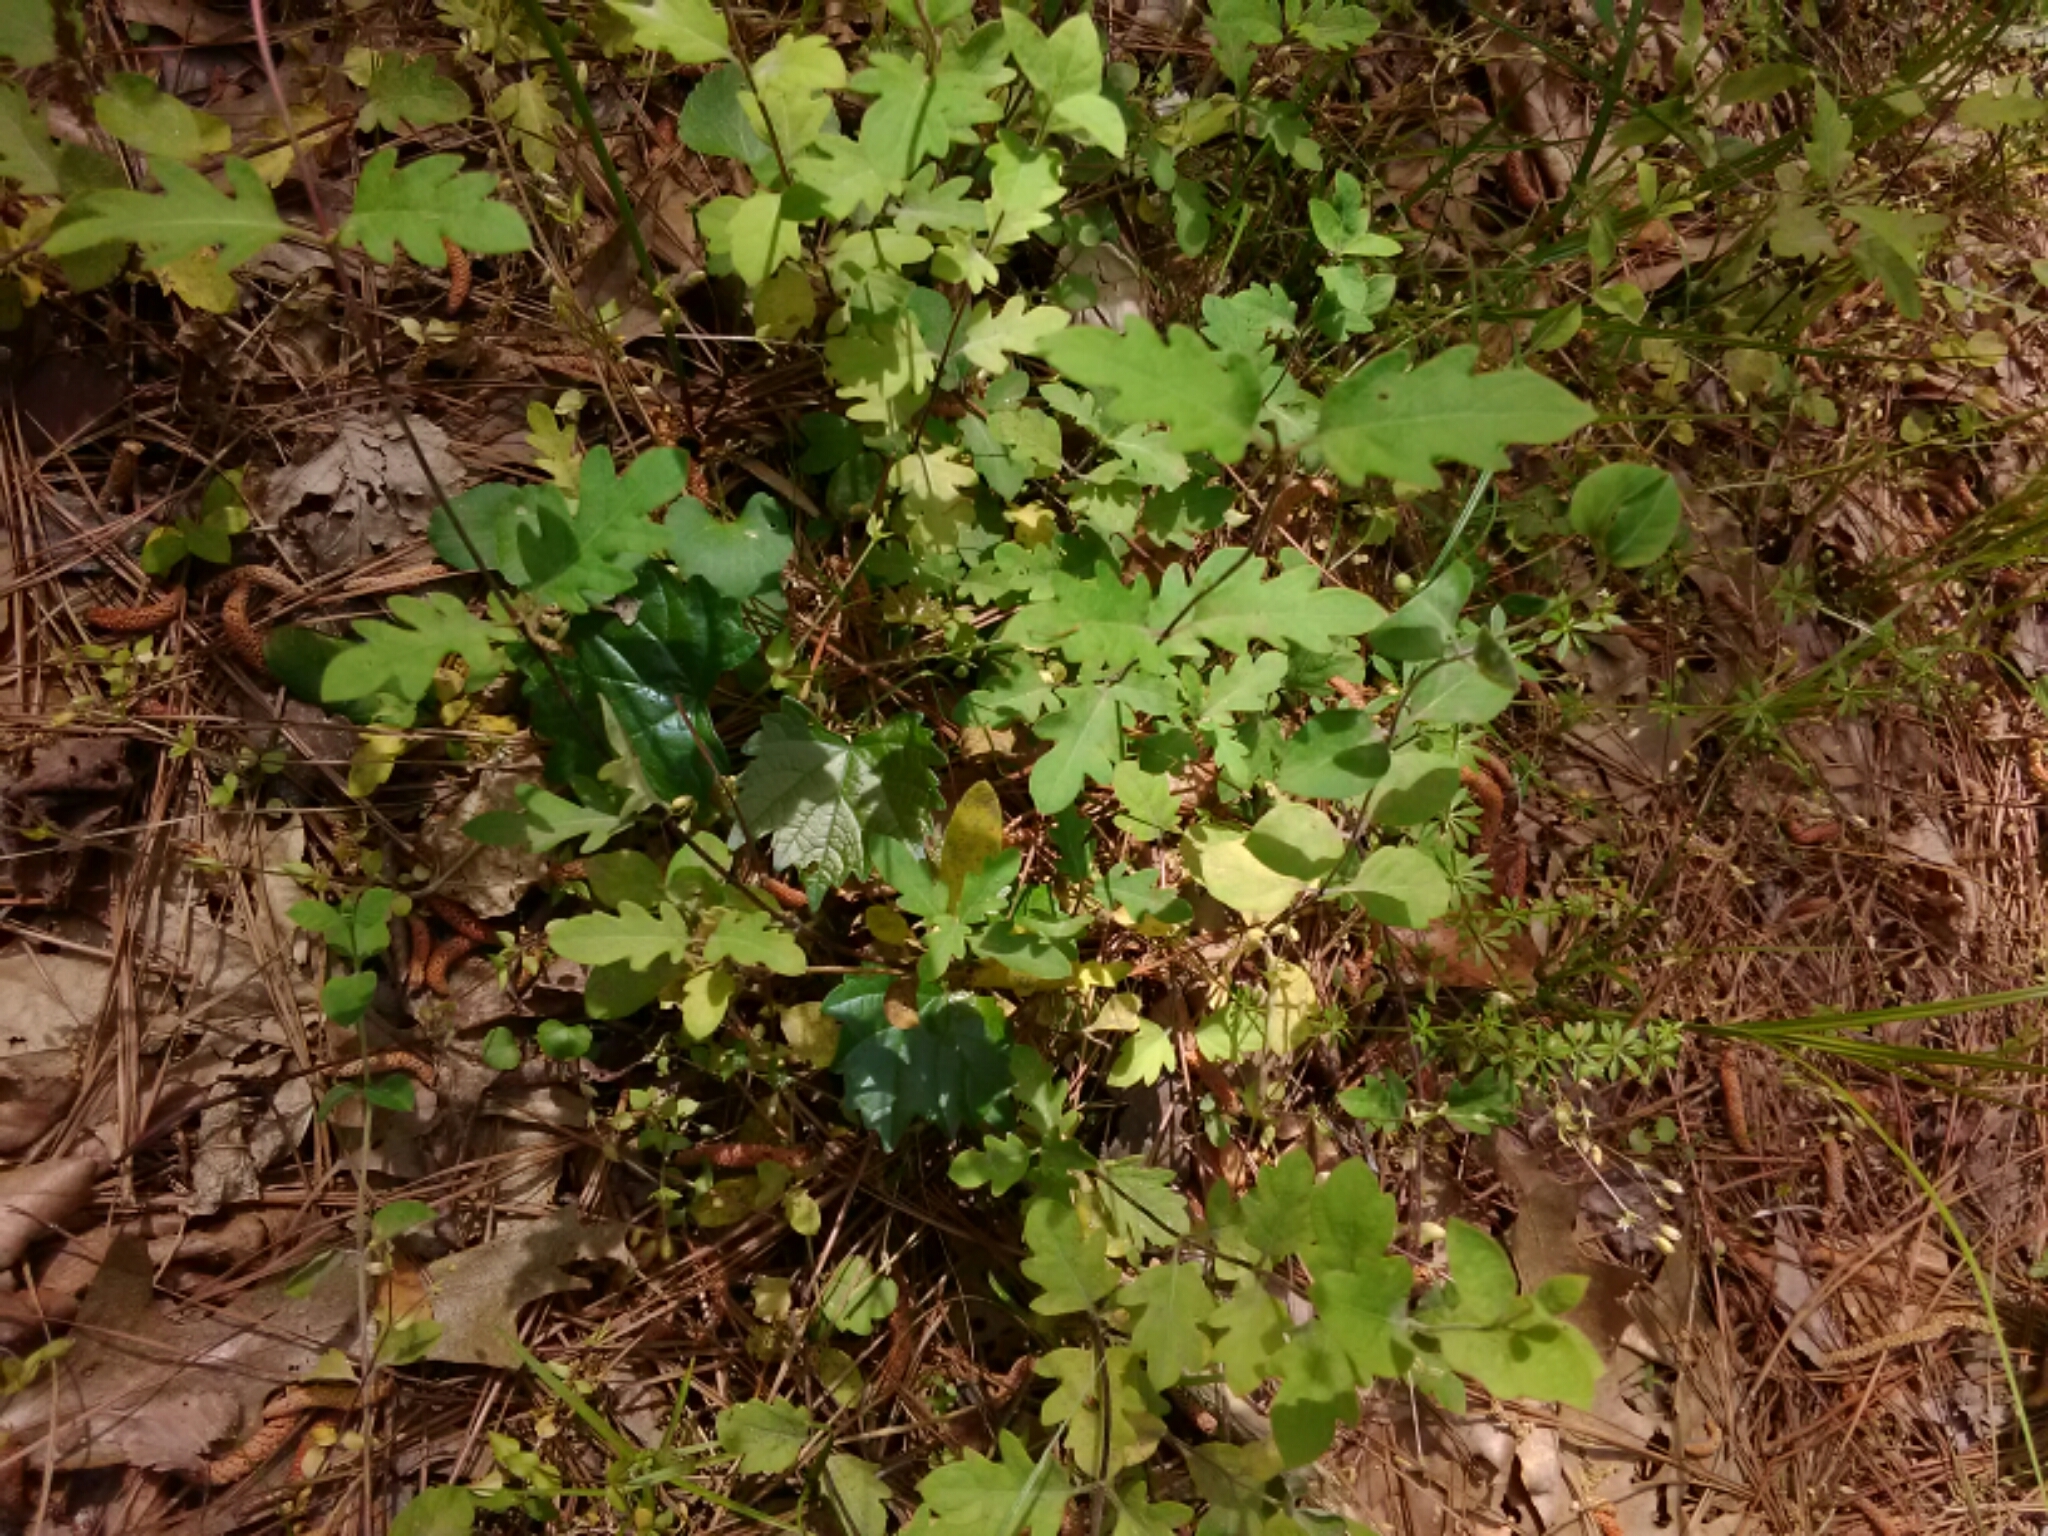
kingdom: Plantae
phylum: Tracheophyta
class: Magnoliopsida
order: Dipsacales
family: Caprifoliaceae
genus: Lonicera
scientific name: Lonicera japonica
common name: Japanese honeysuckle
